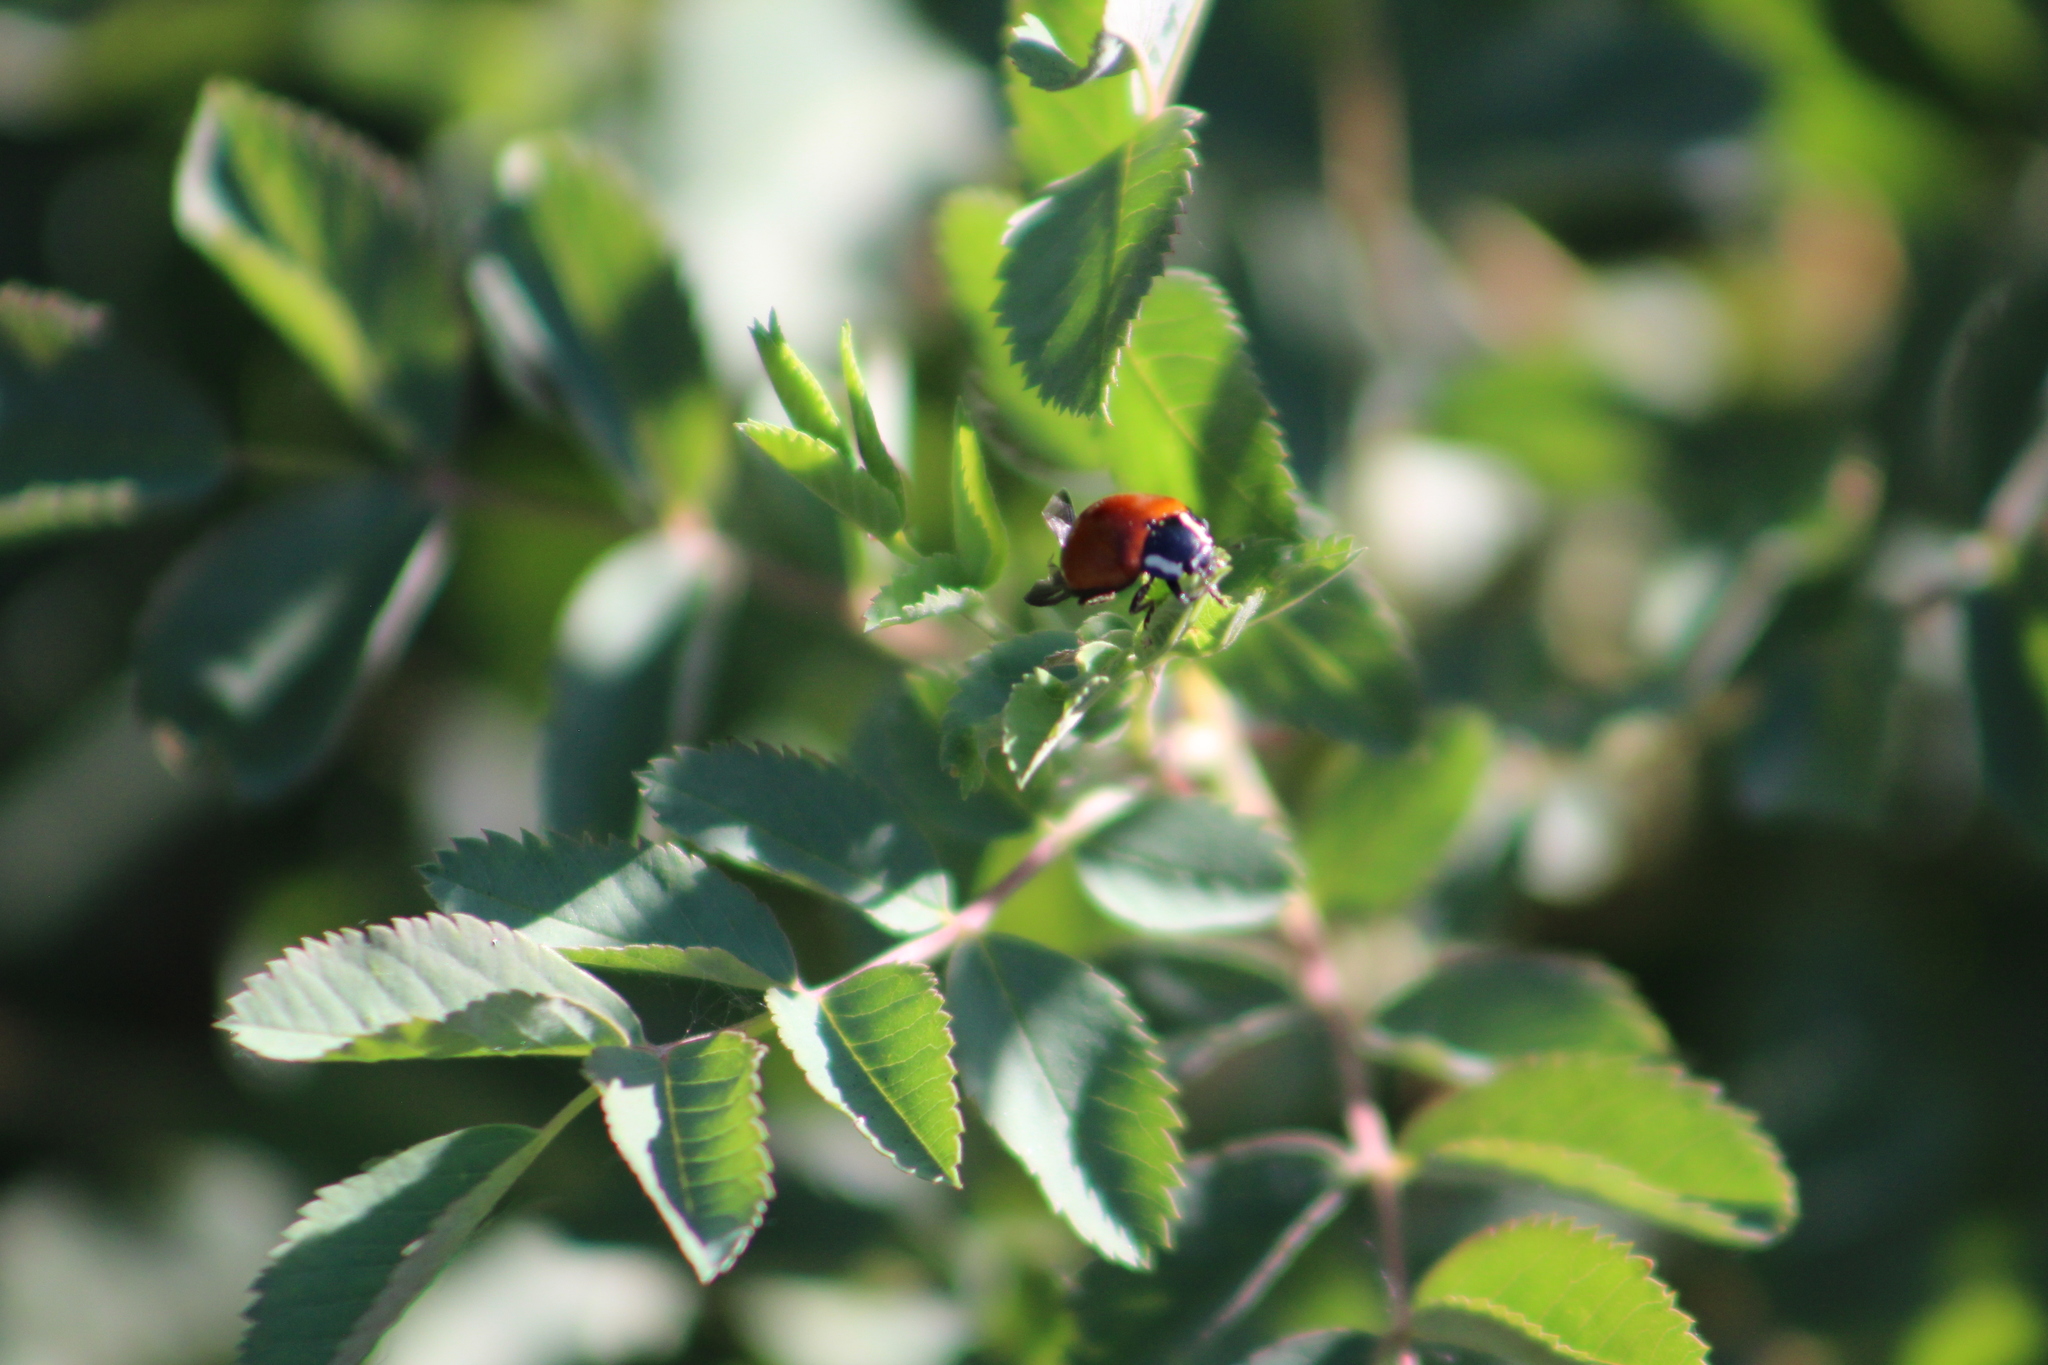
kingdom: Animalia
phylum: Arthropoda
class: Insecta
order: Coleoptera
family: Coccinellidae
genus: Anatis
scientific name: Anatis lecontei
